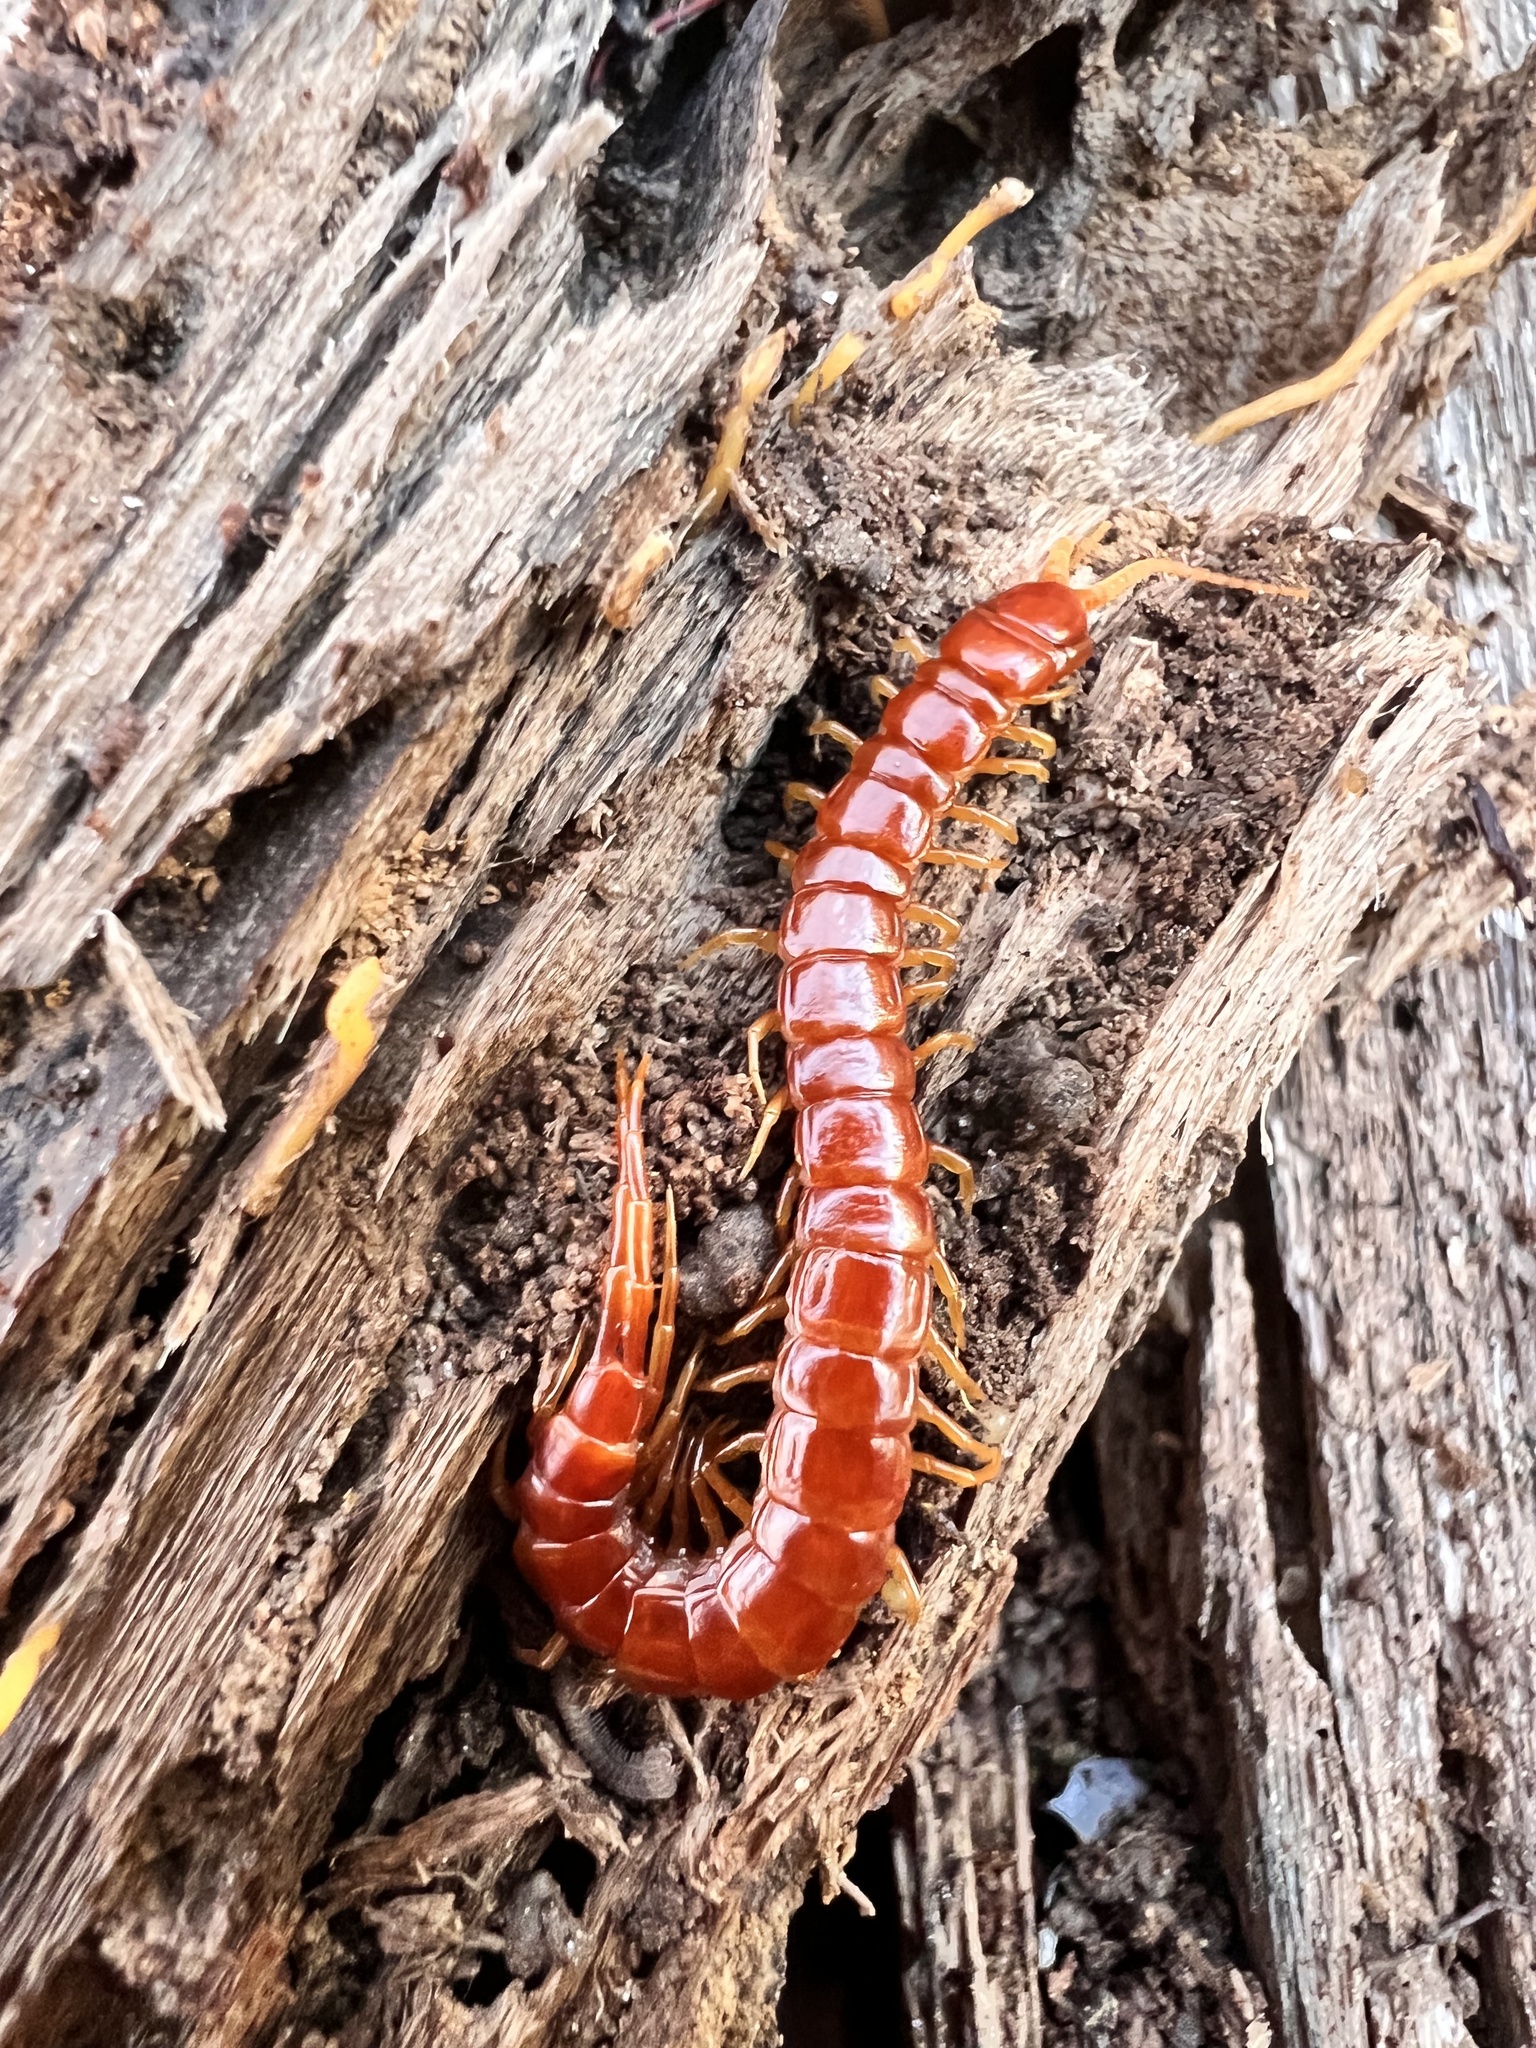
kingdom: Animalia
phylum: Arthropoda
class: Chilopoda
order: Scolopendromorpha
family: Scolopocryptopidae
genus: Scolopocryptops
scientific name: Scolopocryptops sexspinosus
